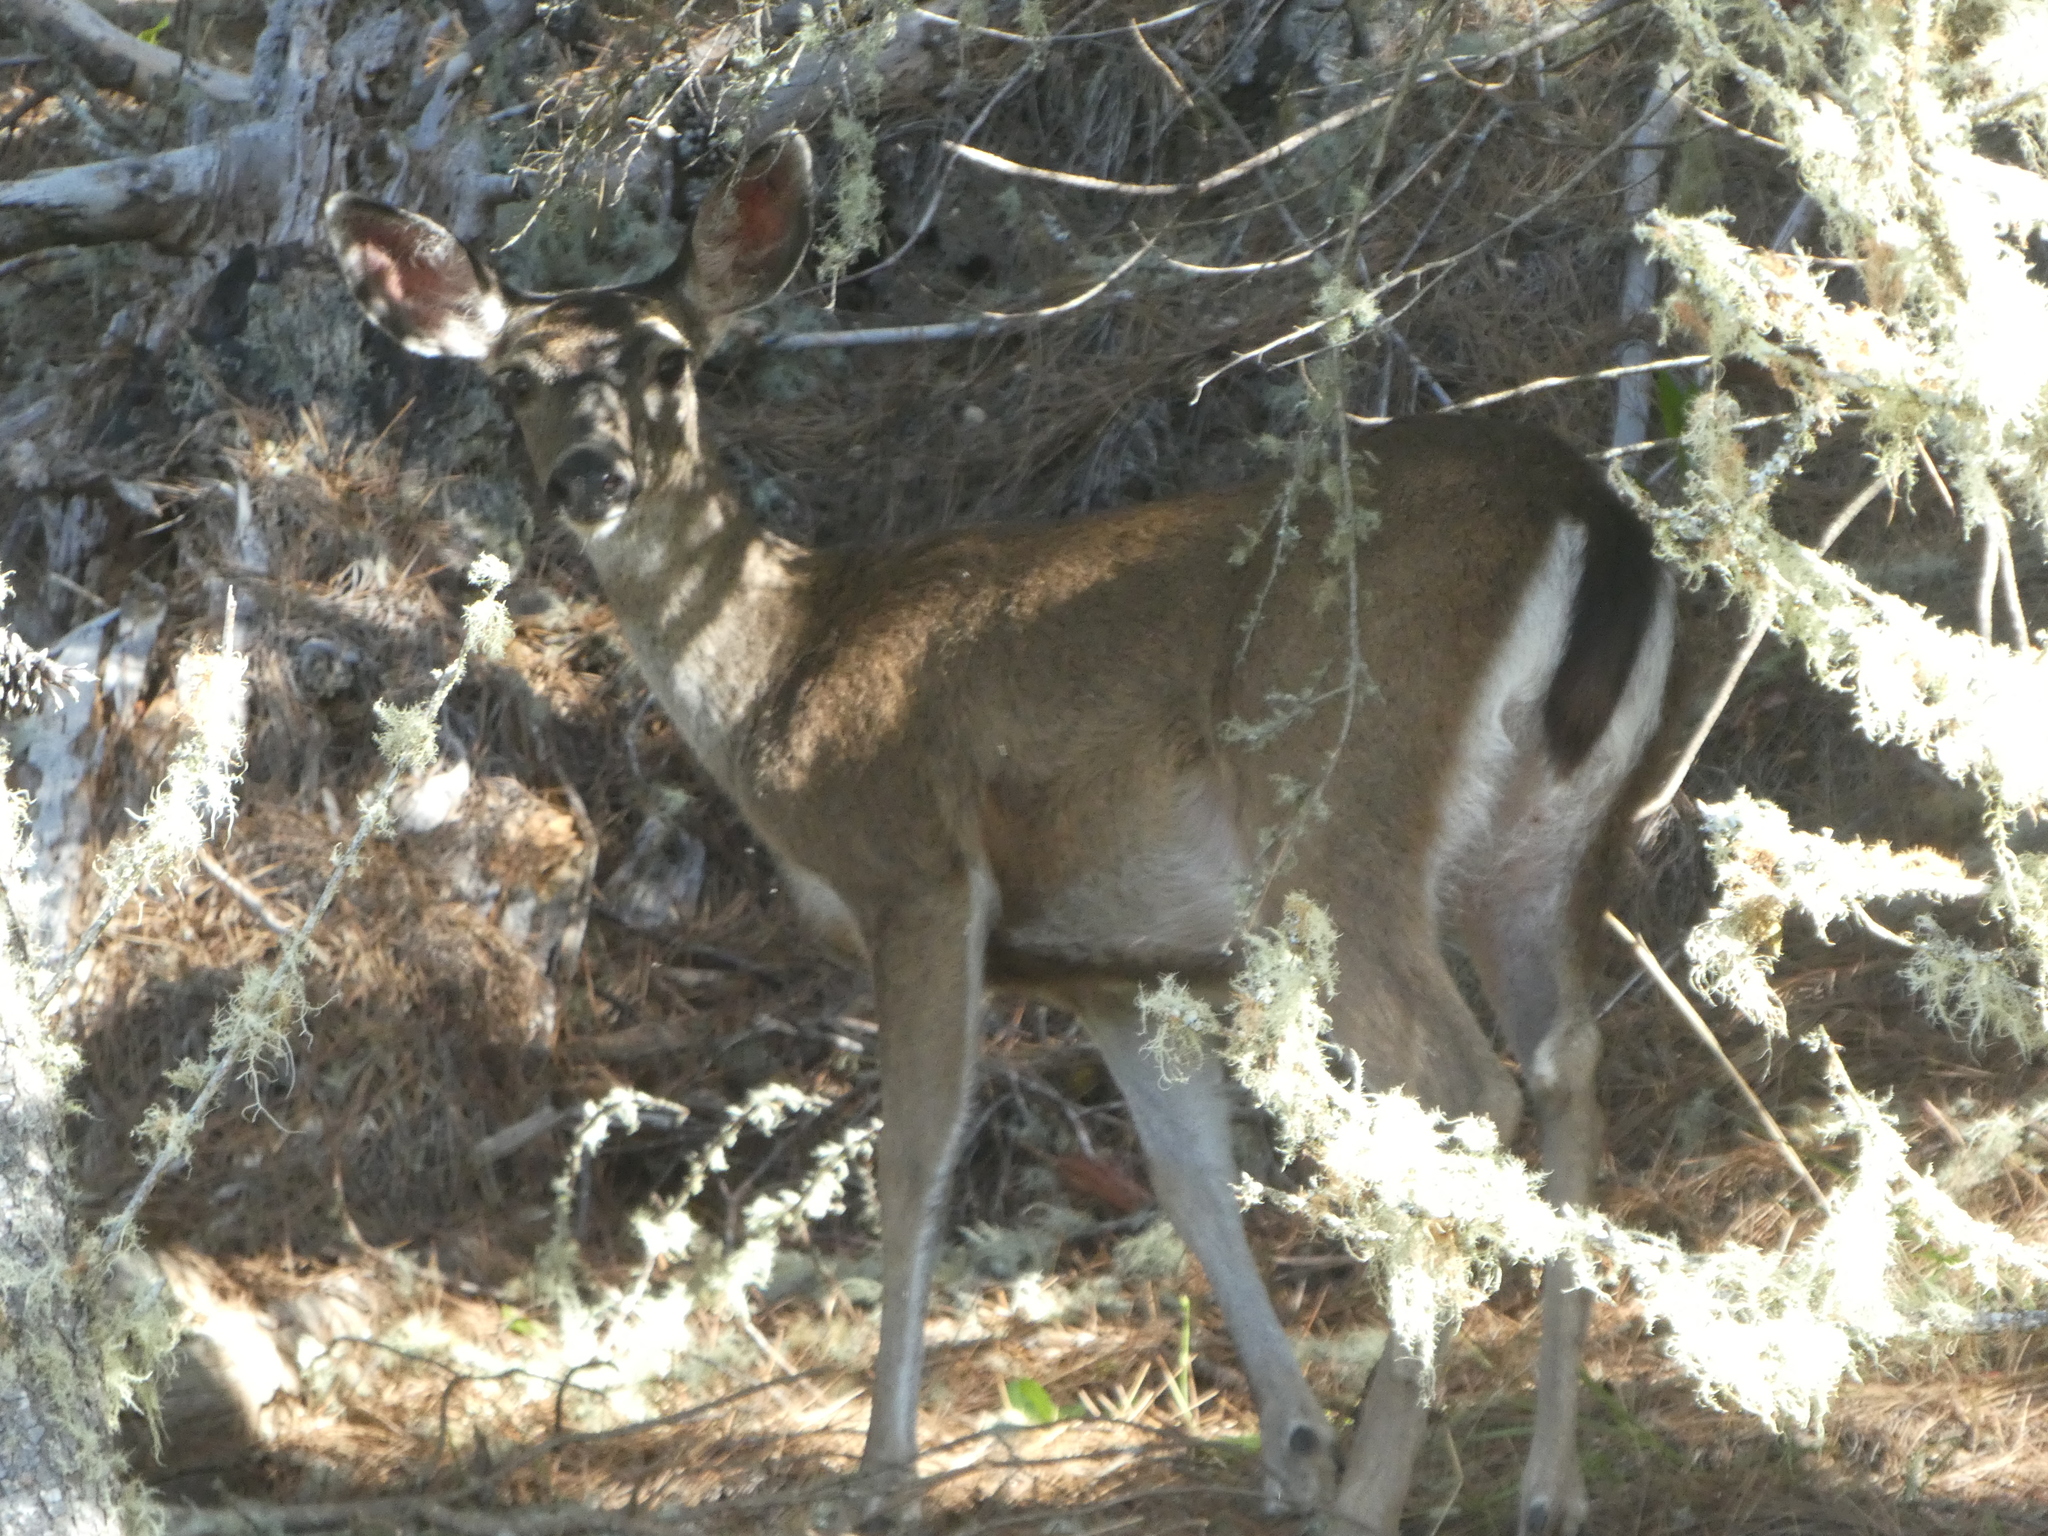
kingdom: Animalia
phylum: Chordata
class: Mammalia
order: Artiodactyla
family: Cervidae
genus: Odocoileus
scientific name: Odocoileus hemionus
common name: Mule deer
